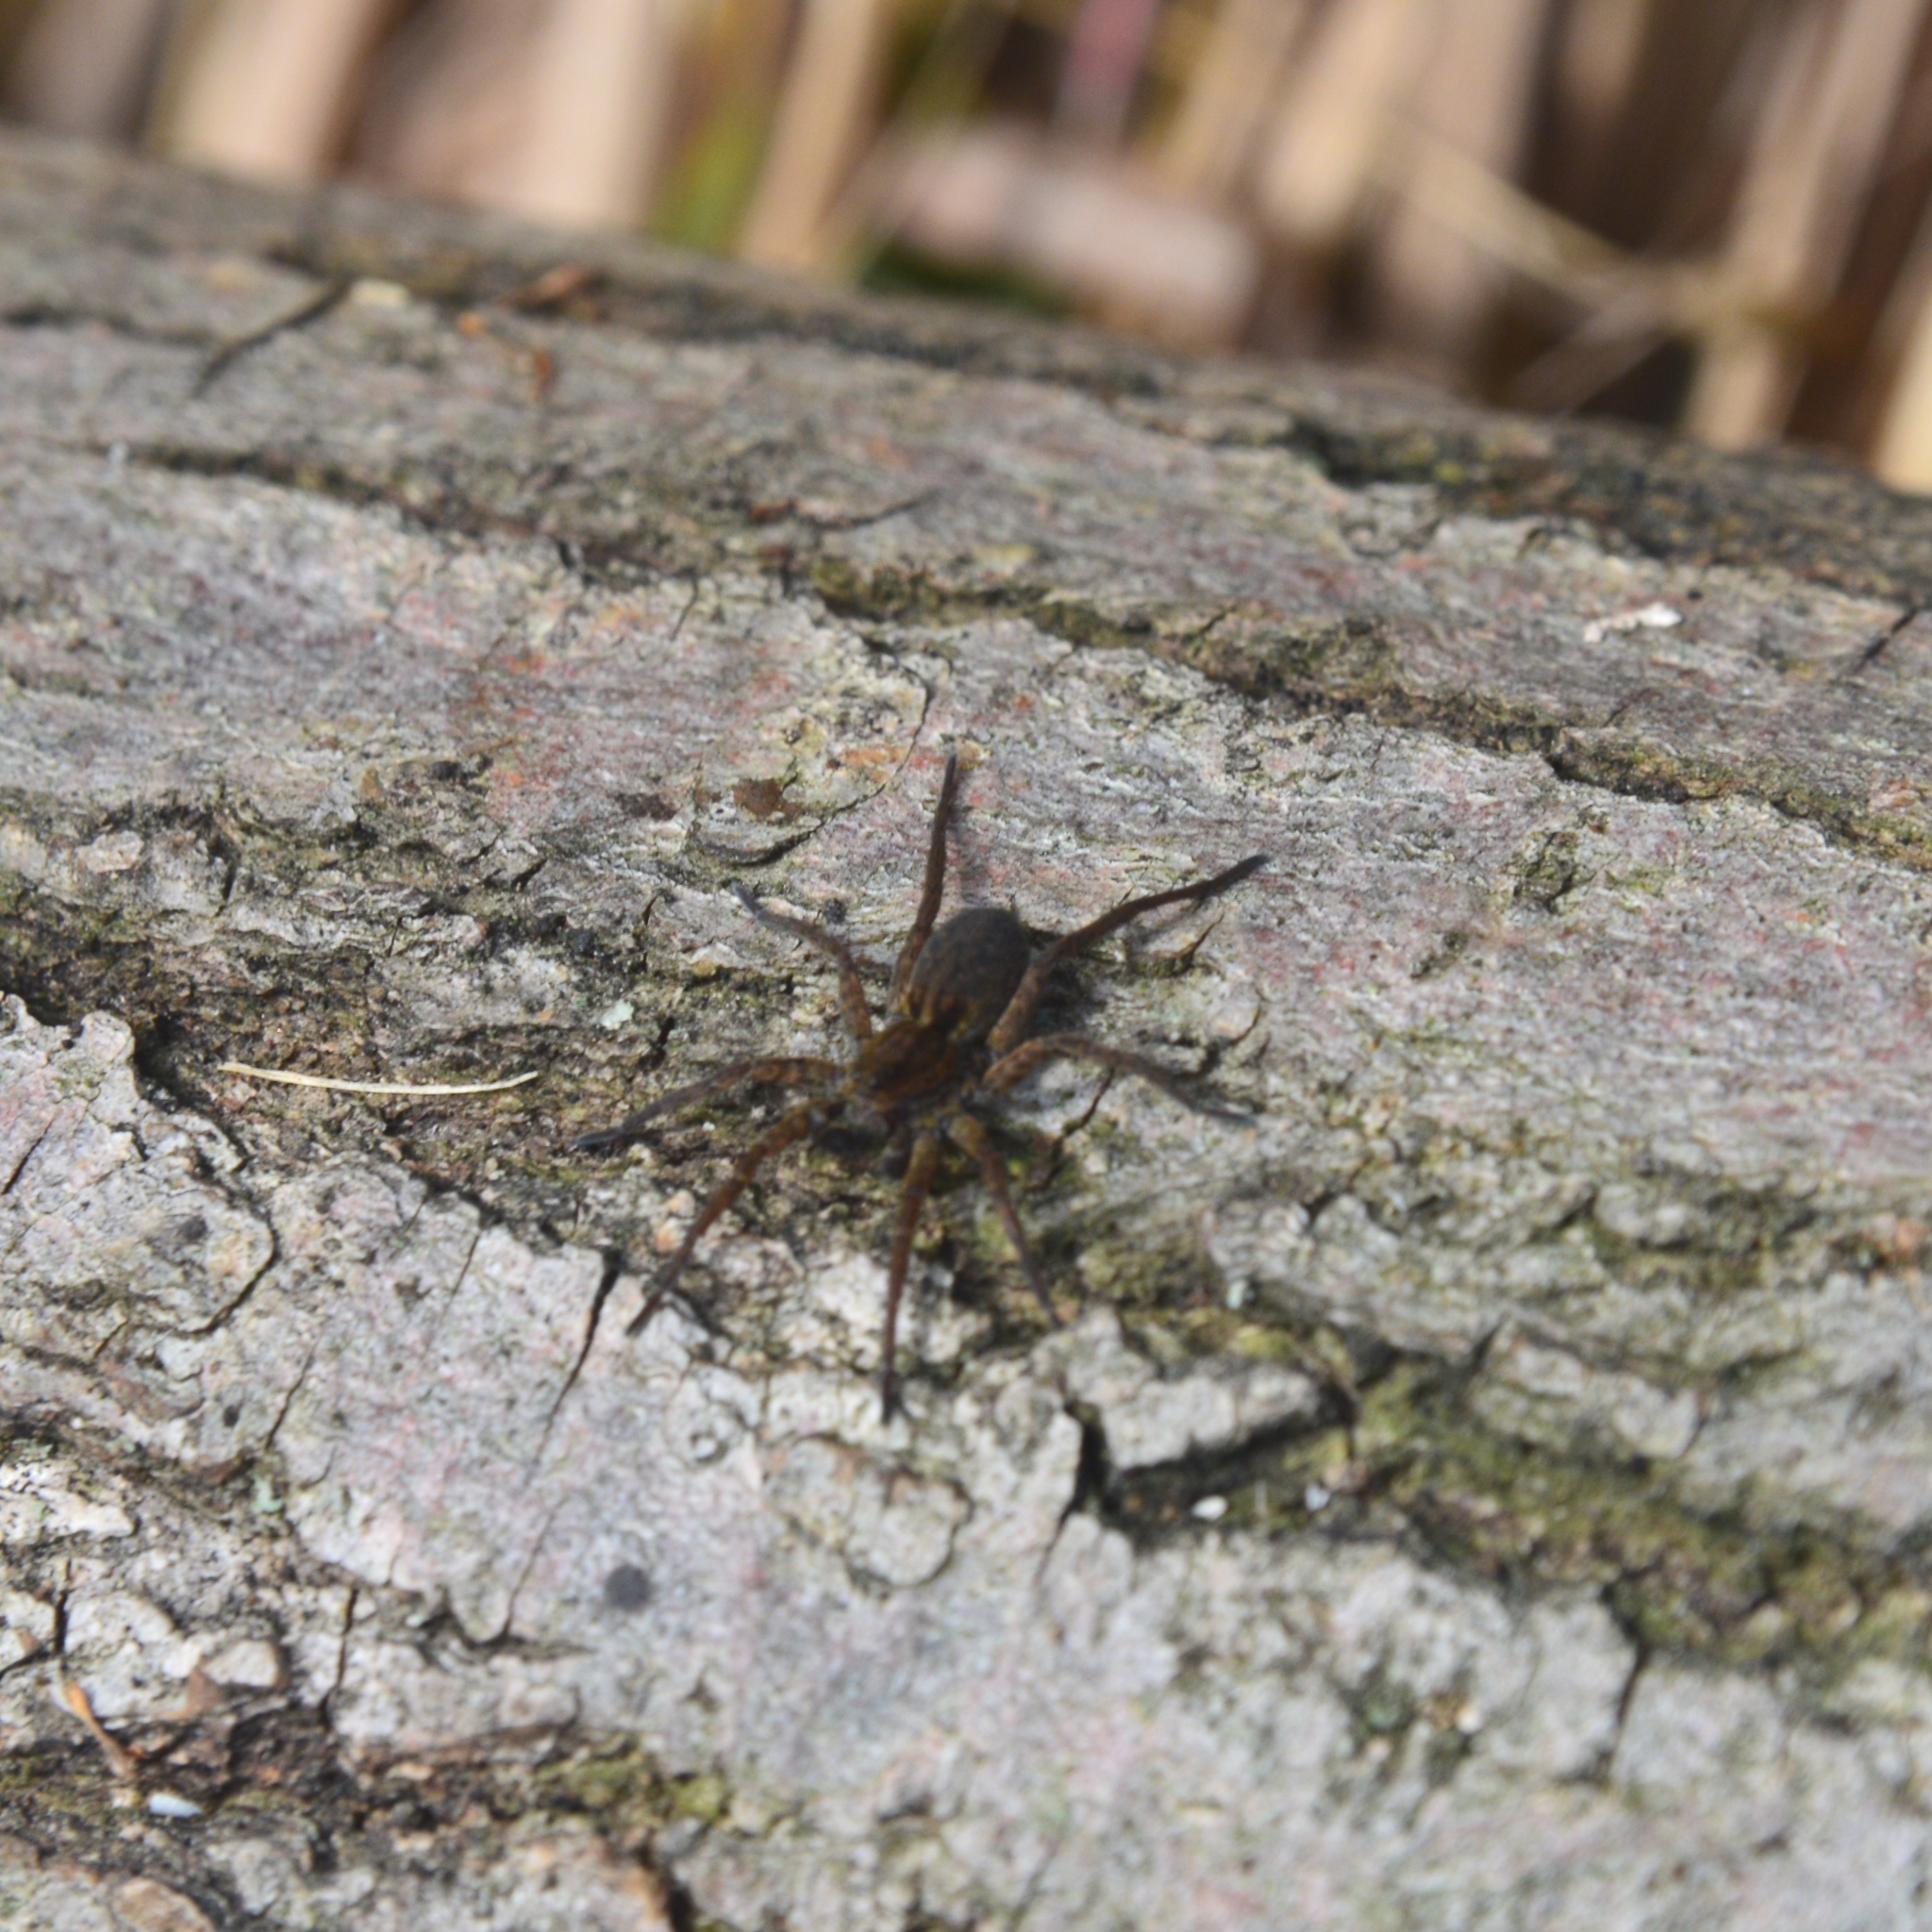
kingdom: Animalia
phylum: Arthropoda
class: Arachnida
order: Araneae
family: Lycosidae
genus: Trochosa
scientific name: Trochosa
